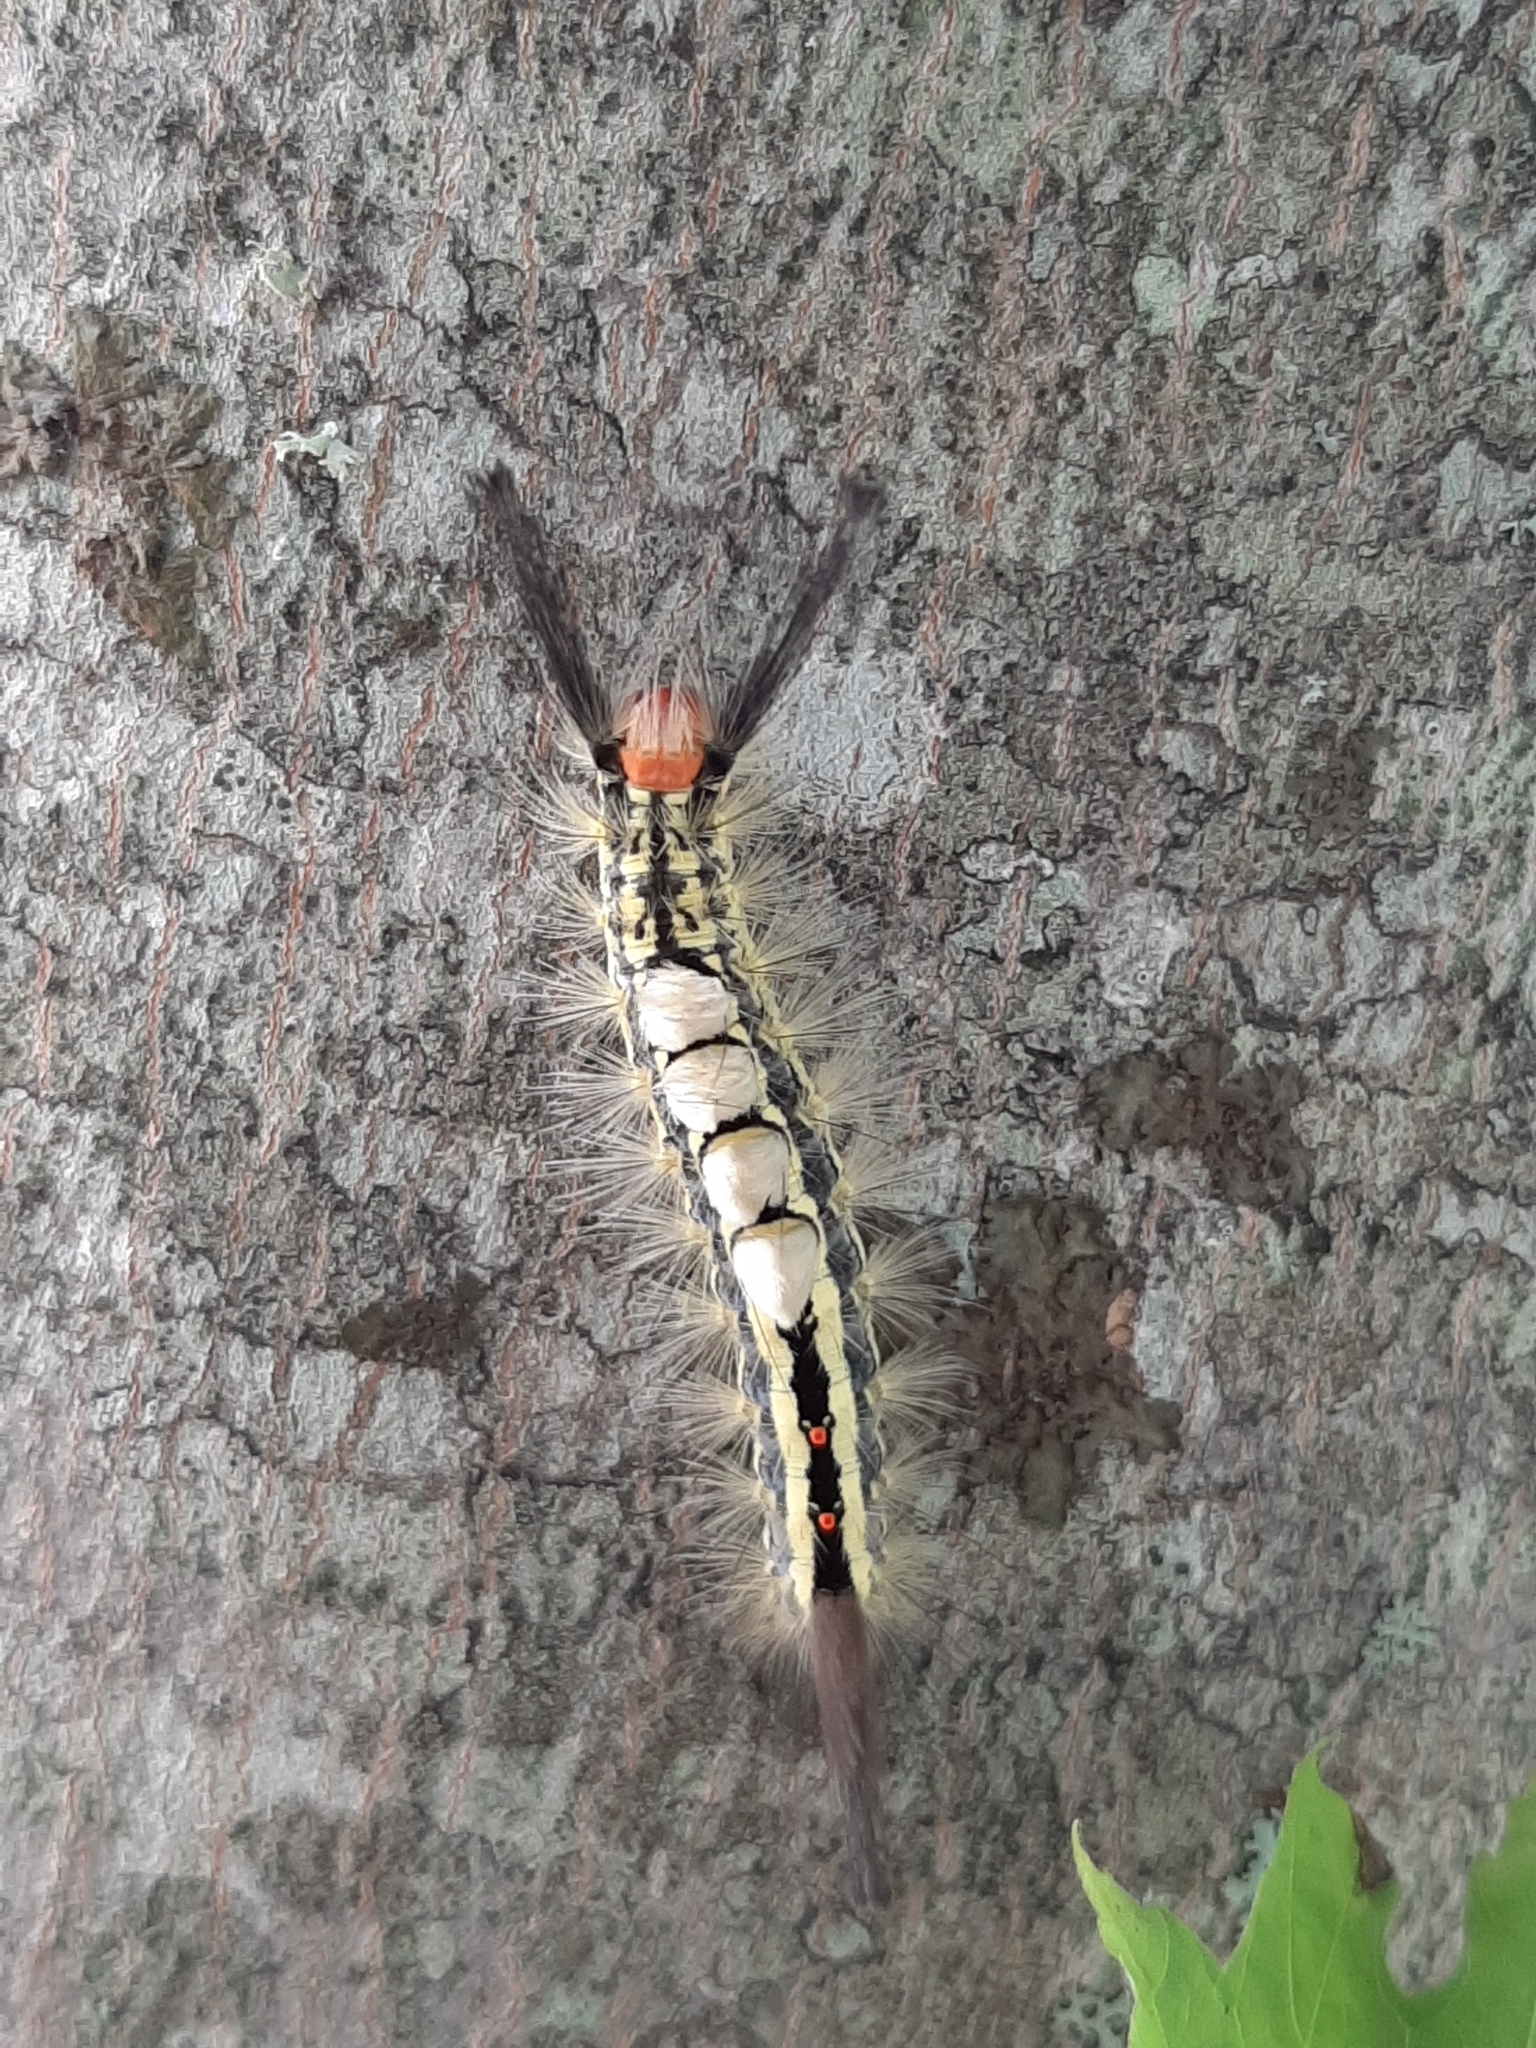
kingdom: Animalia
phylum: Arthropoda
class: Insecta
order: Lepidoptera
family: Erebidae
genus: Orgyia
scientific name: Orgyia leucostigma
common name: White-marked tussock moth
